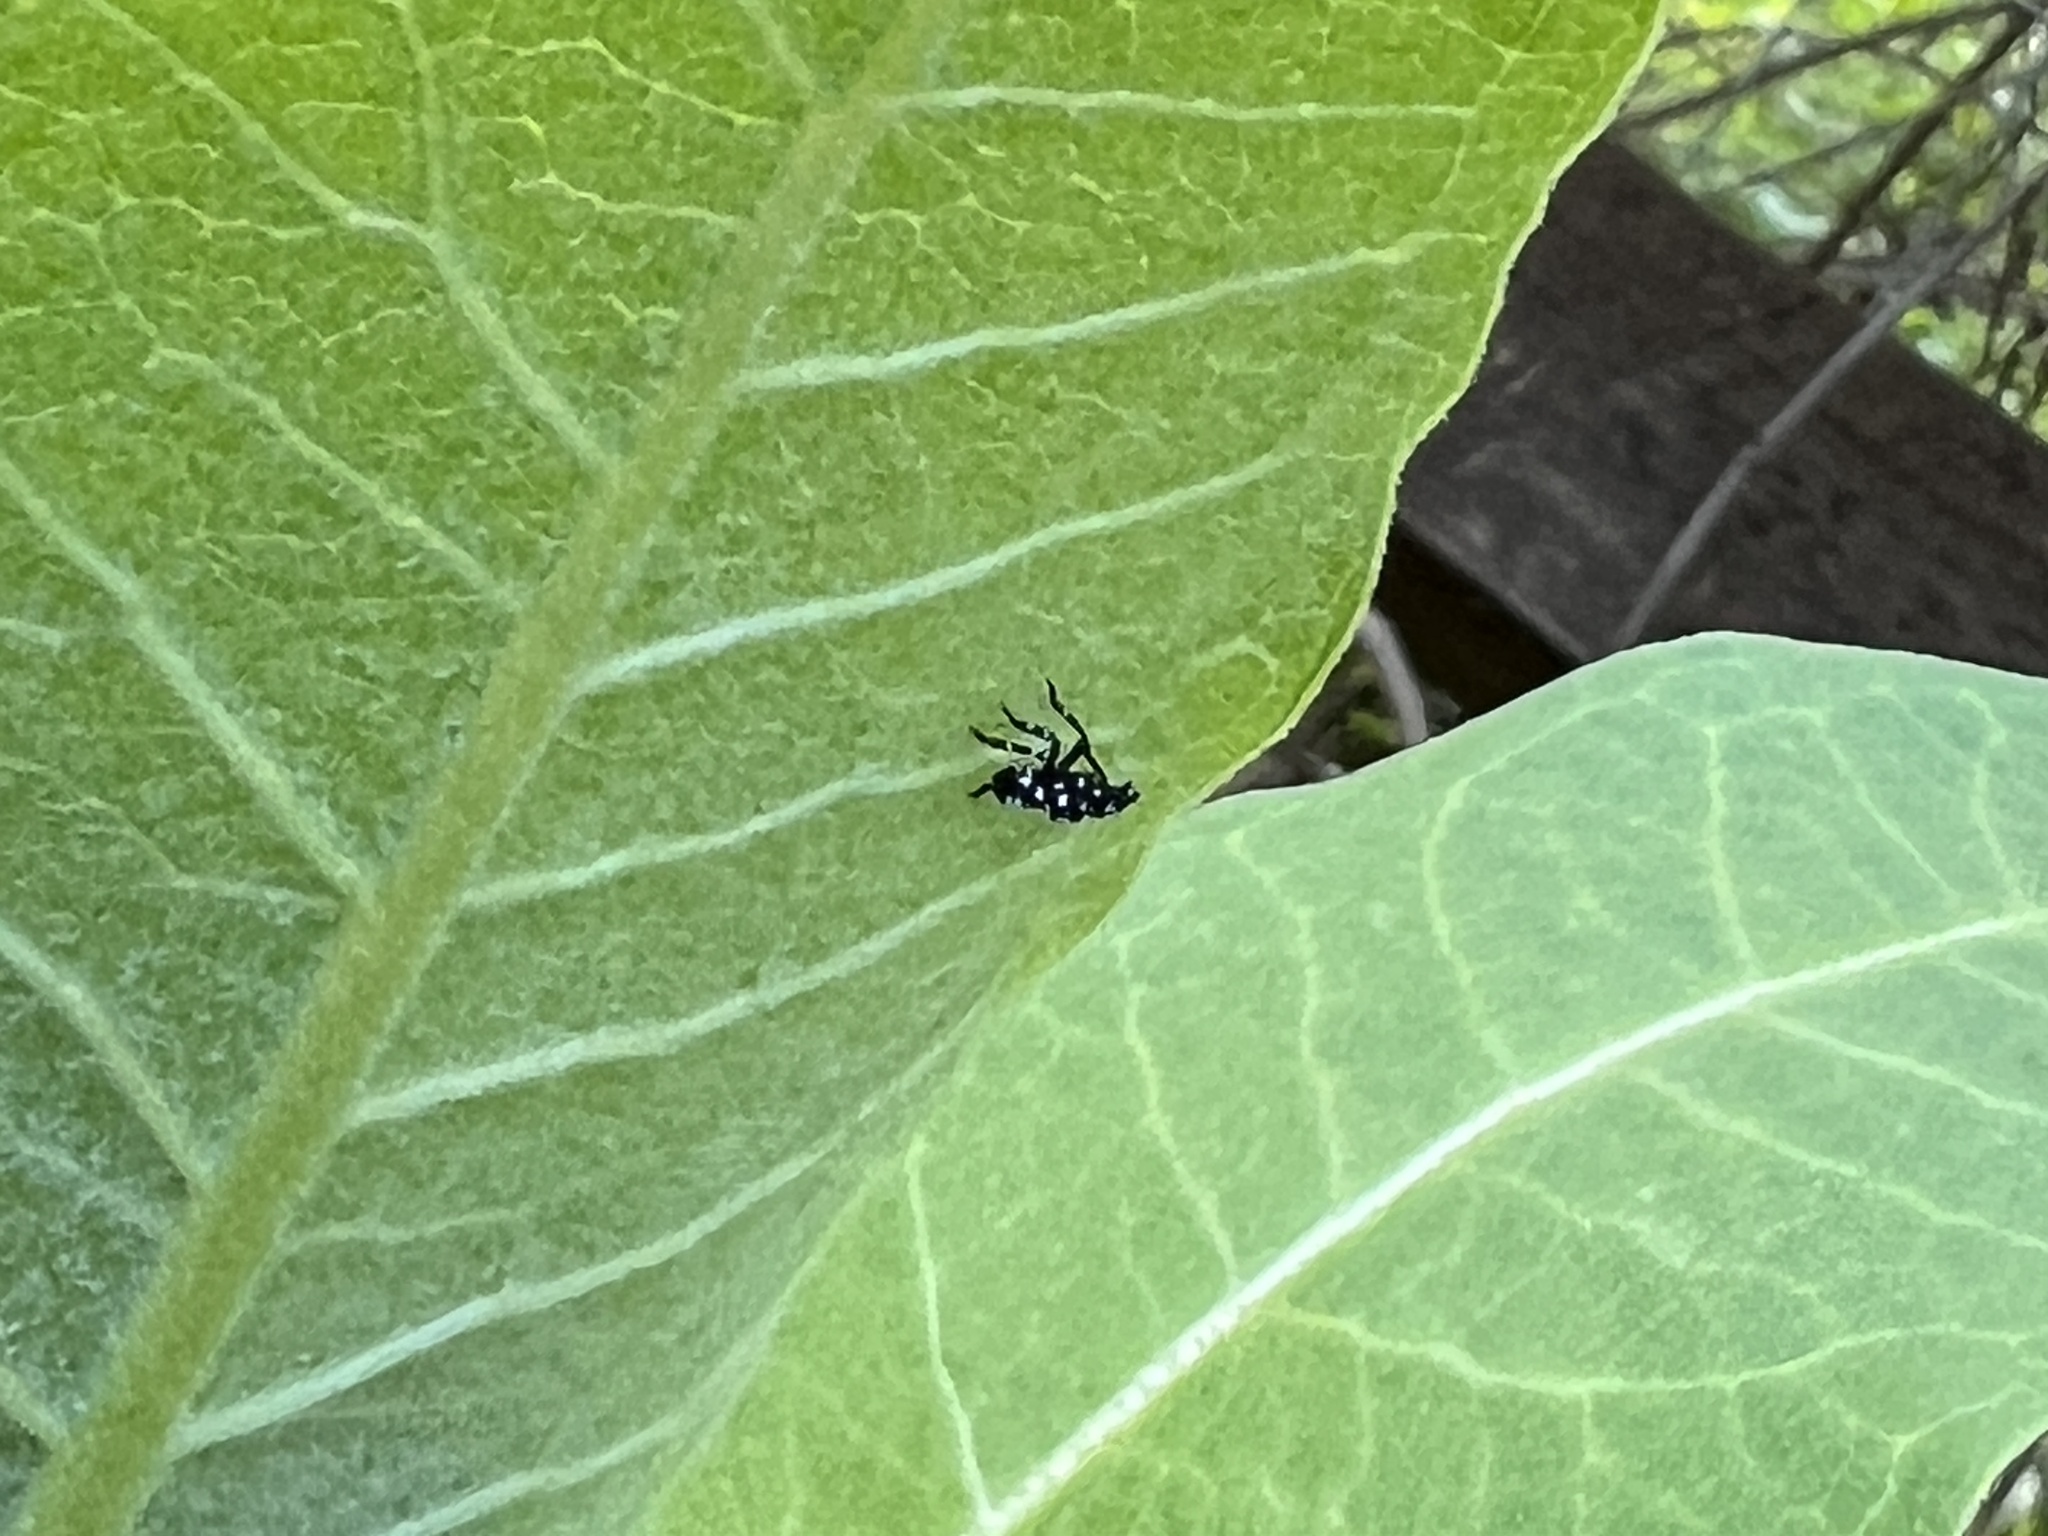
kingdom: Animalia
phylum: Arthropoda
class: Insecta
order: Hemiptera
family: Fulgoridae
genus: Lycorma
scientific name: Lycorma delicatula
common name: Spotted lanternfly
